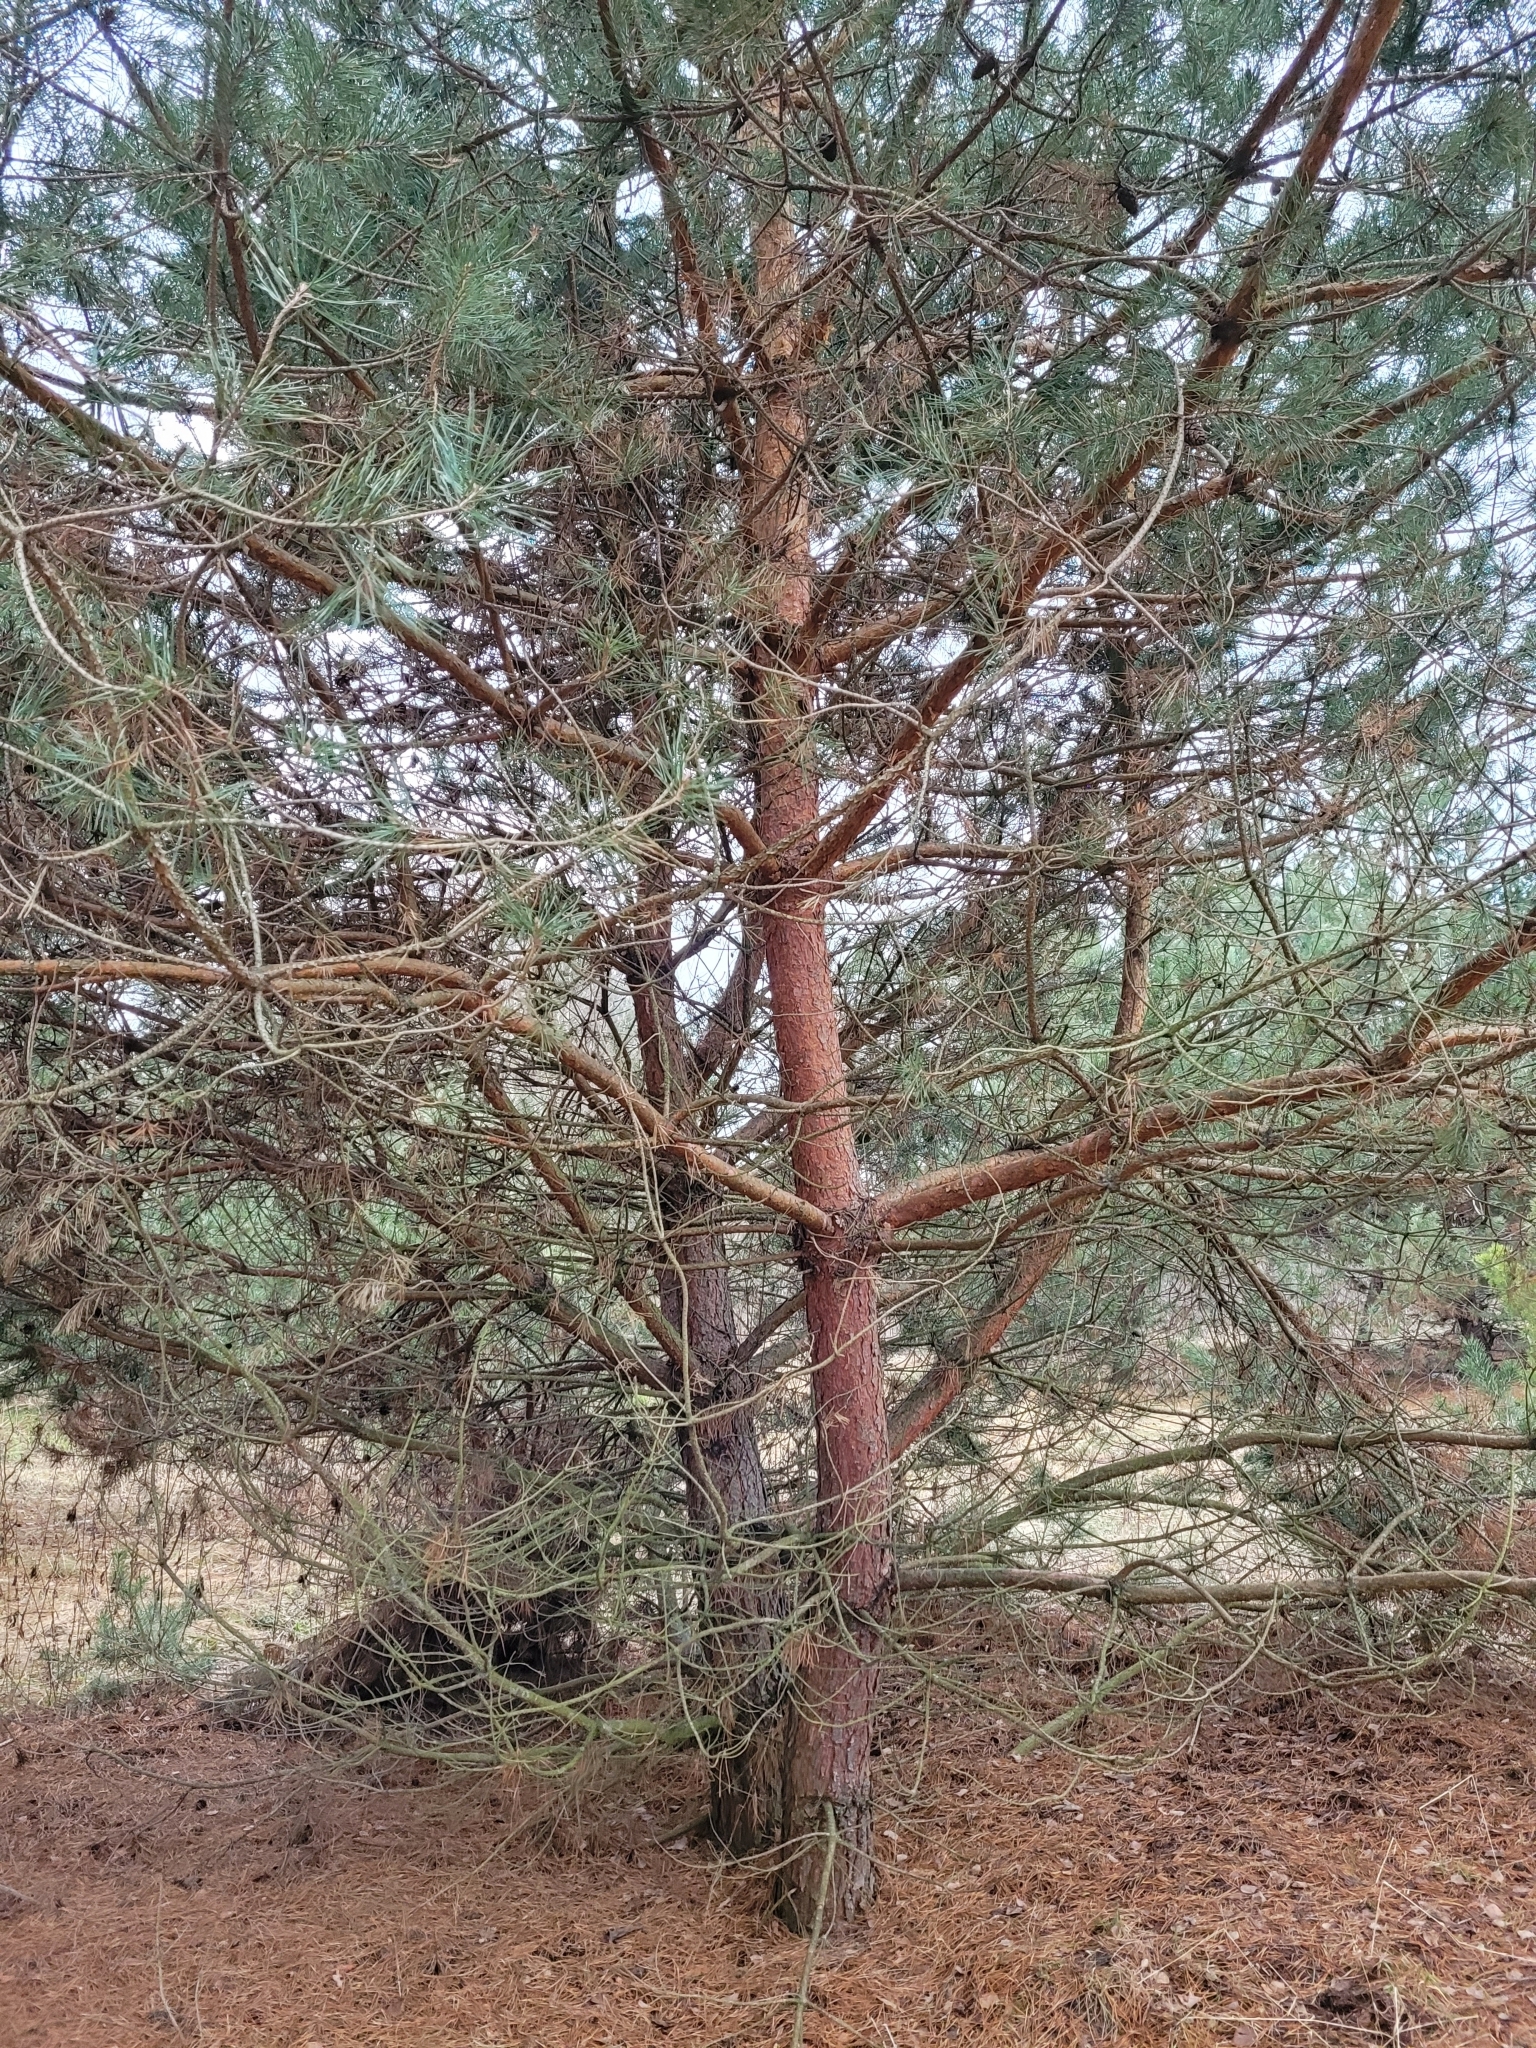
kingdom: Plantae
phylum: Tracheophyta
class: Pinopsida
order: Pinales
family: Pinaceae
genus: Pinus
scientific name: Pinus sylvestris
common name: Scots pine
